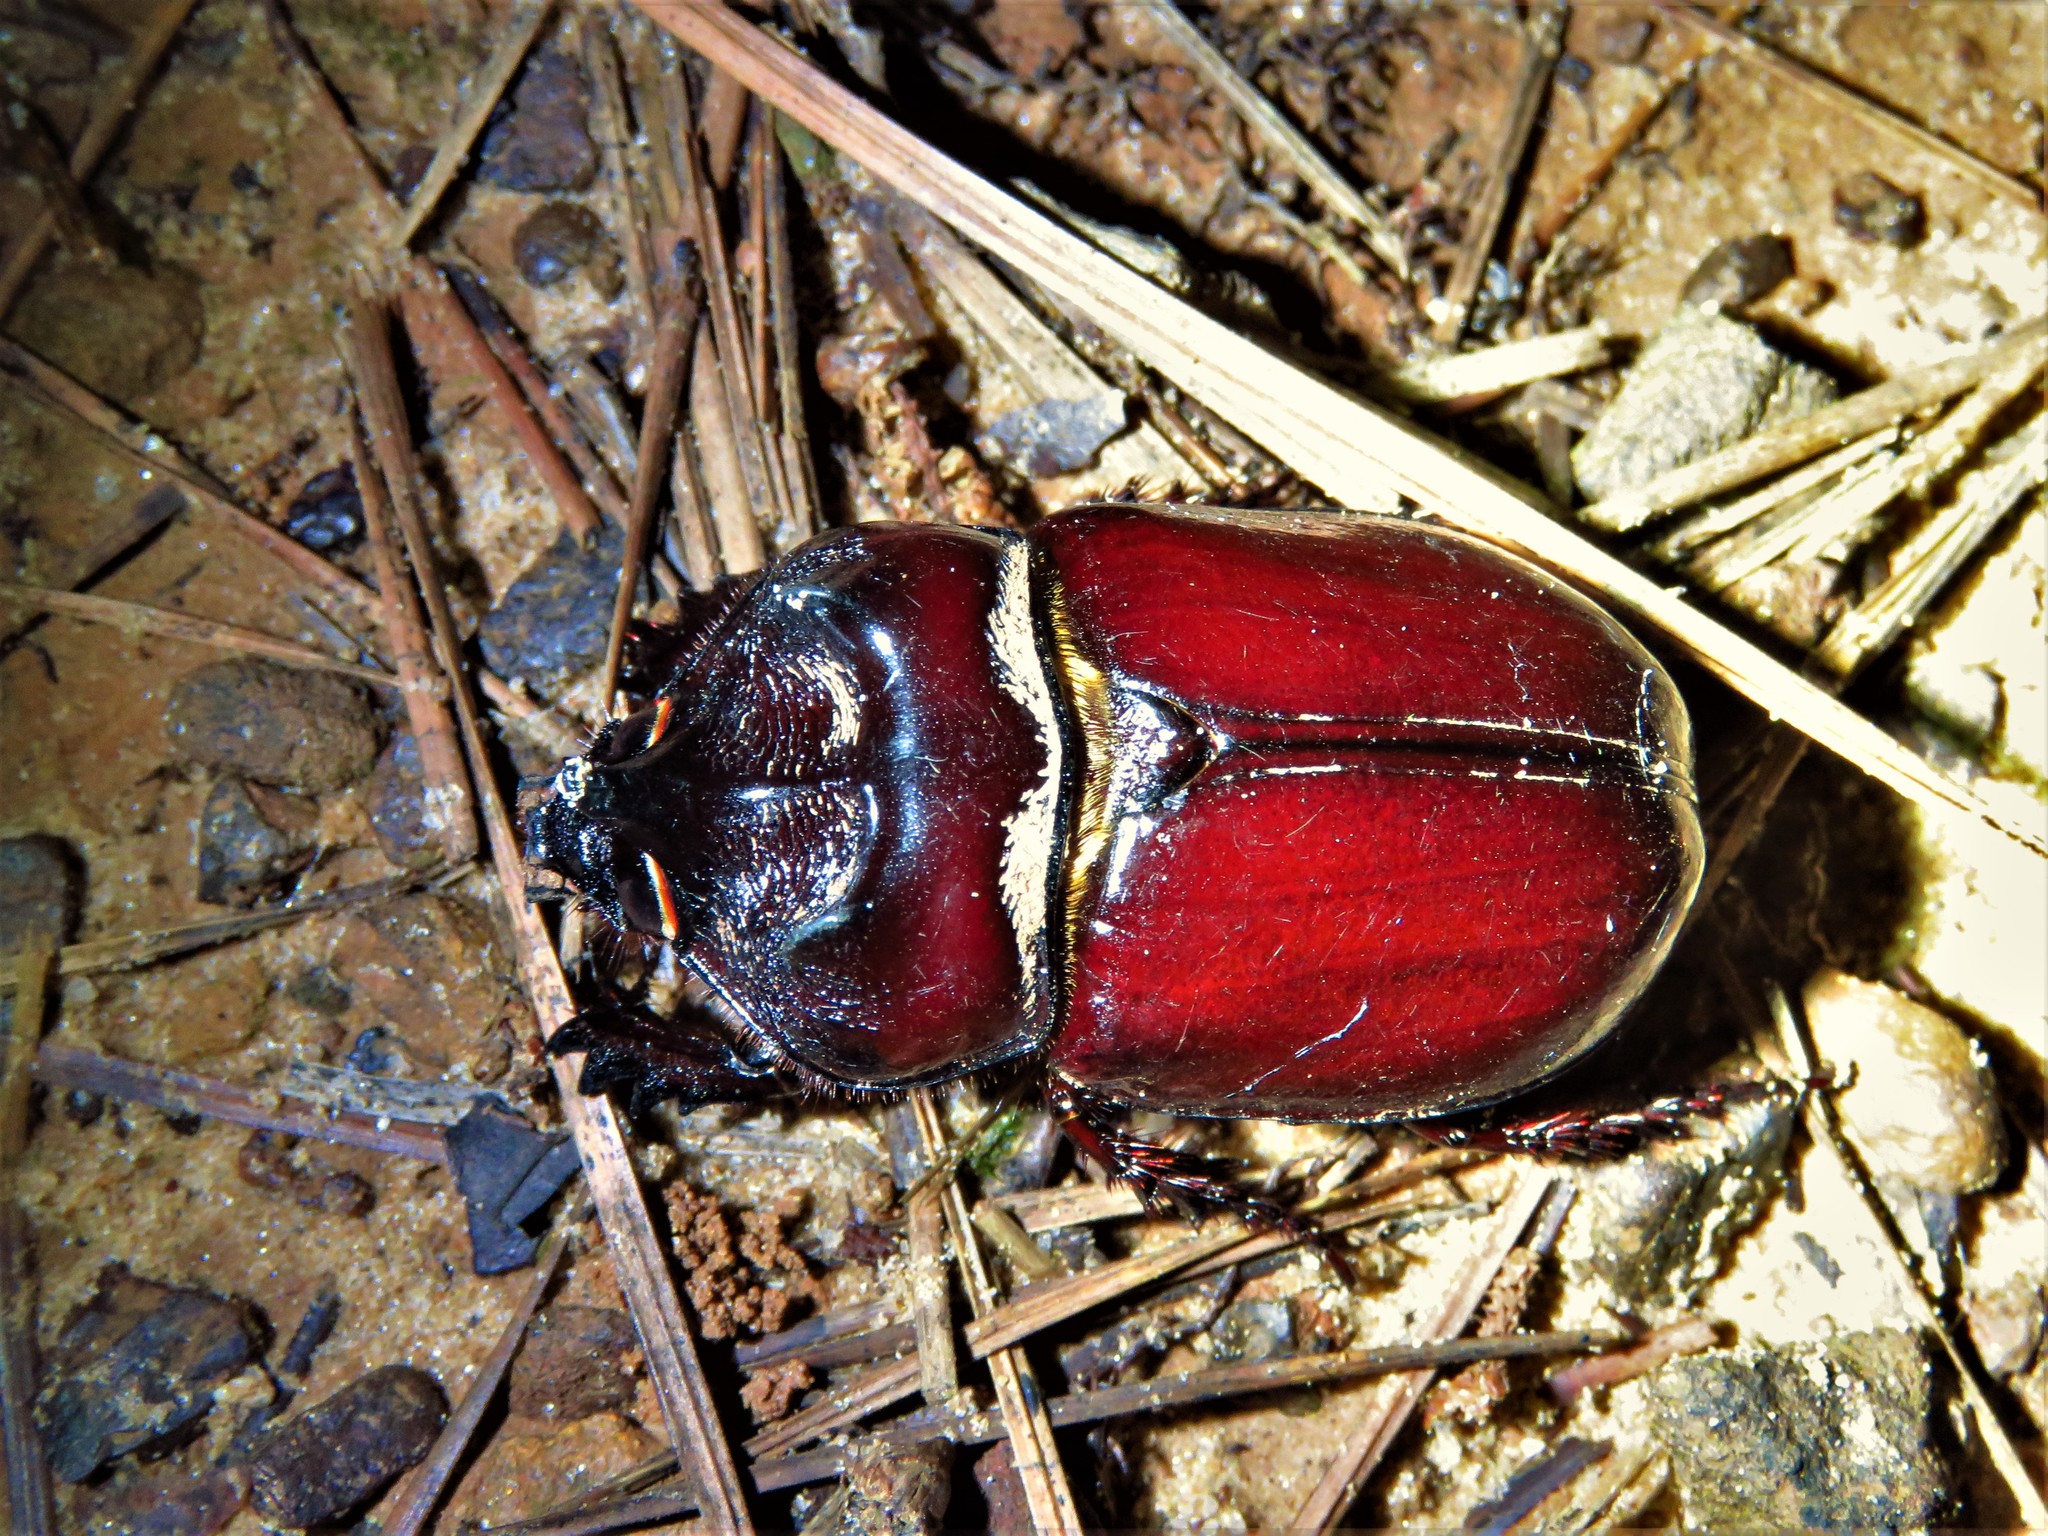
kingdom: Animalia
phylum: Arthropoda
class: Insecta
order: Coleoptera
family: Scarabaeidae
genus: Strategus
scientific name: Strategus aloeus
